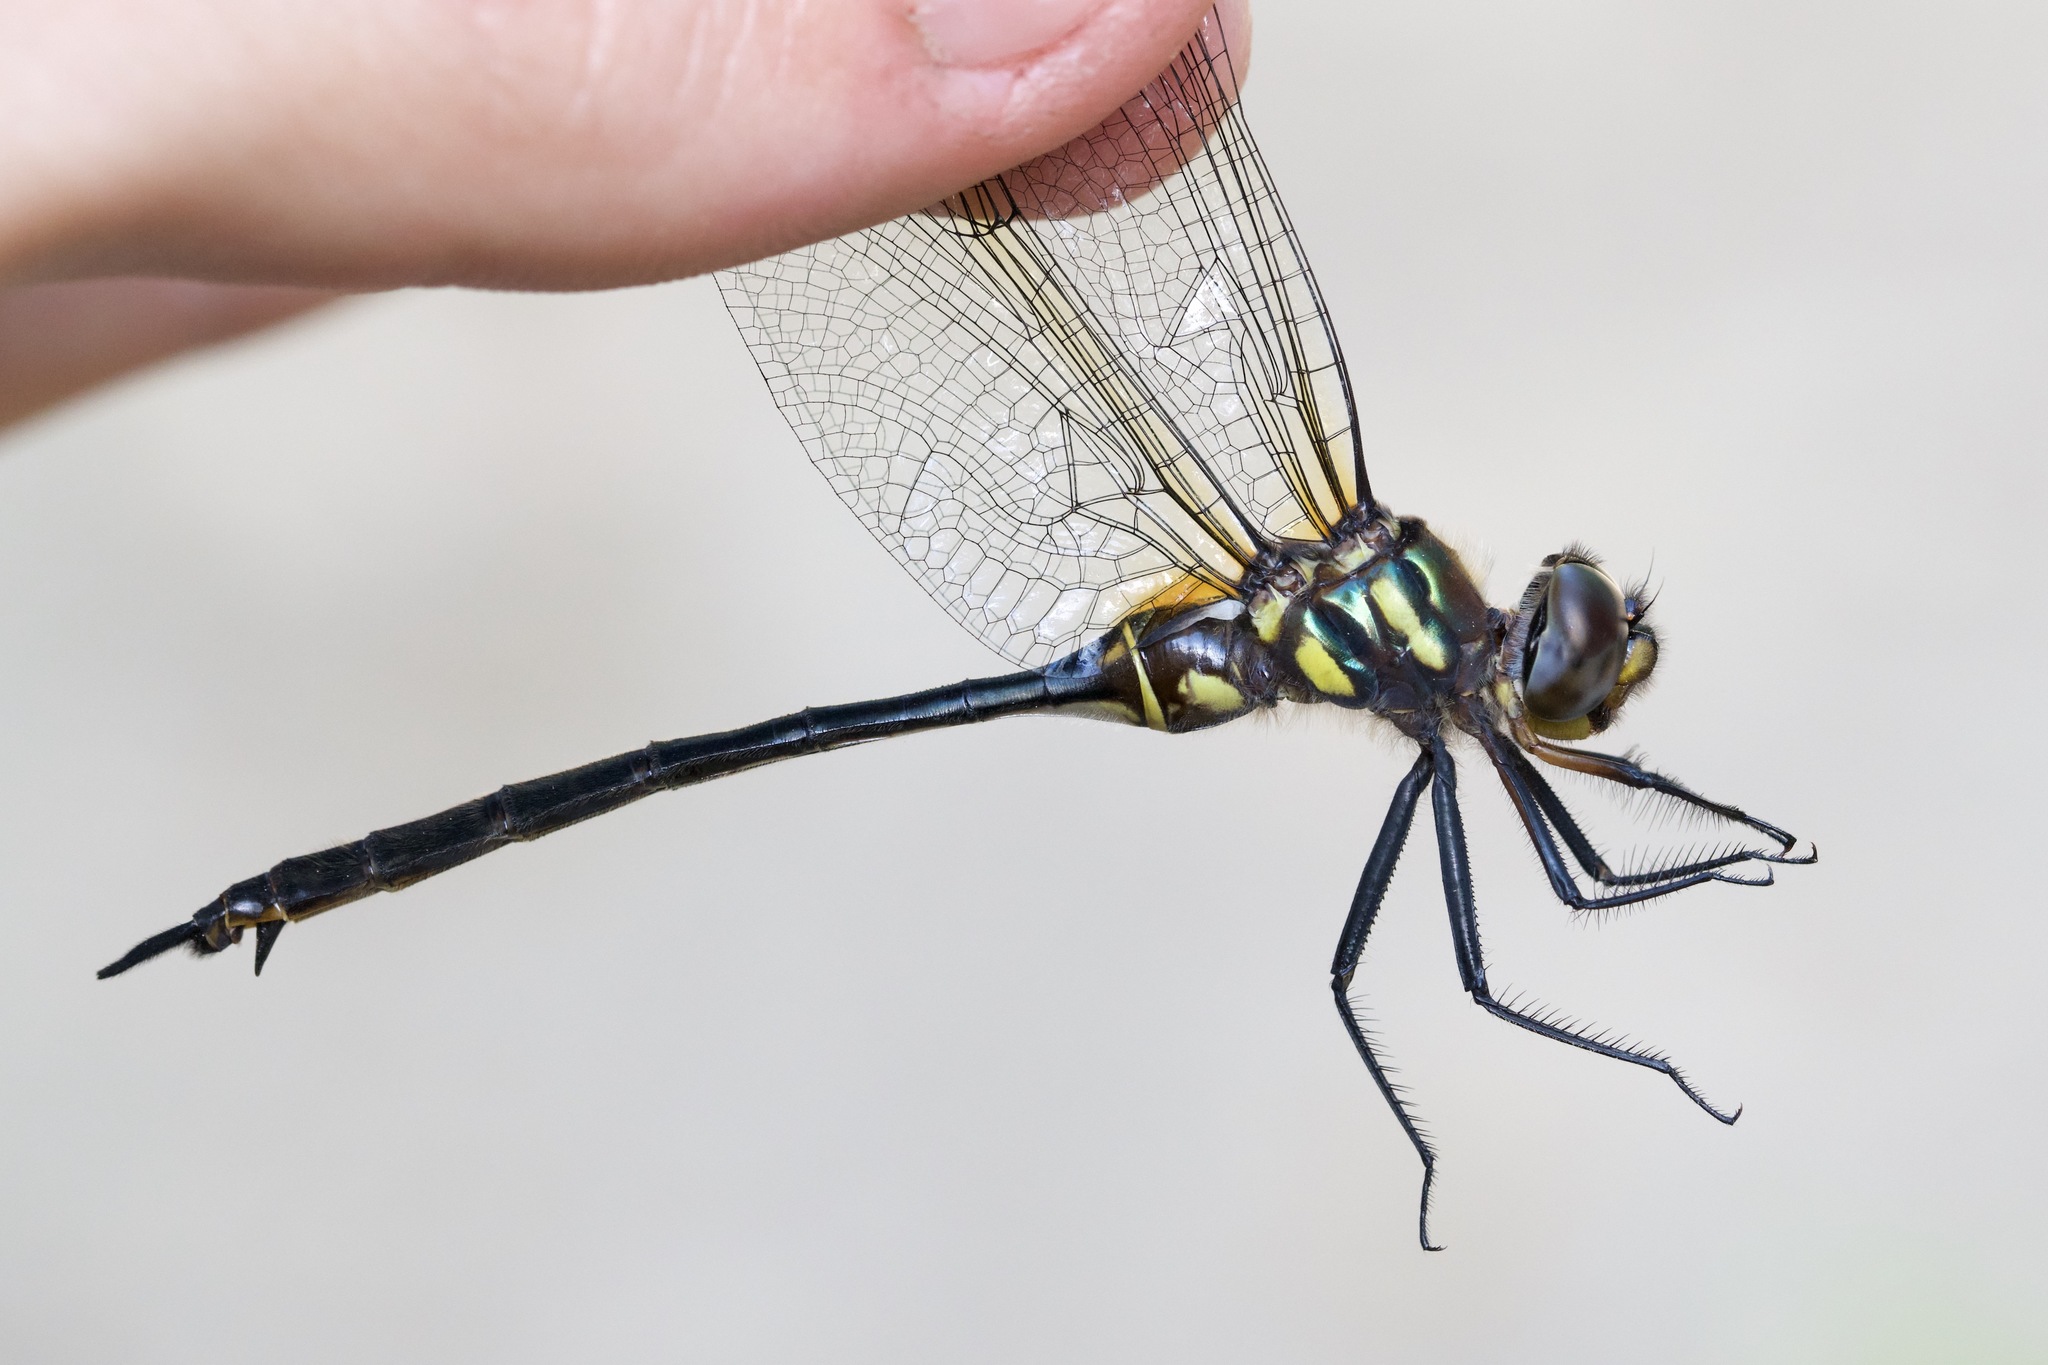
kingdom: Animalia
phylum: Arthropoda
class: Insecta
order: Odonata
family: Corduliidae
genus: Somatochlora
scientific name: Somatochlora tenebrosa
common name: Clamp-tipped emerald
